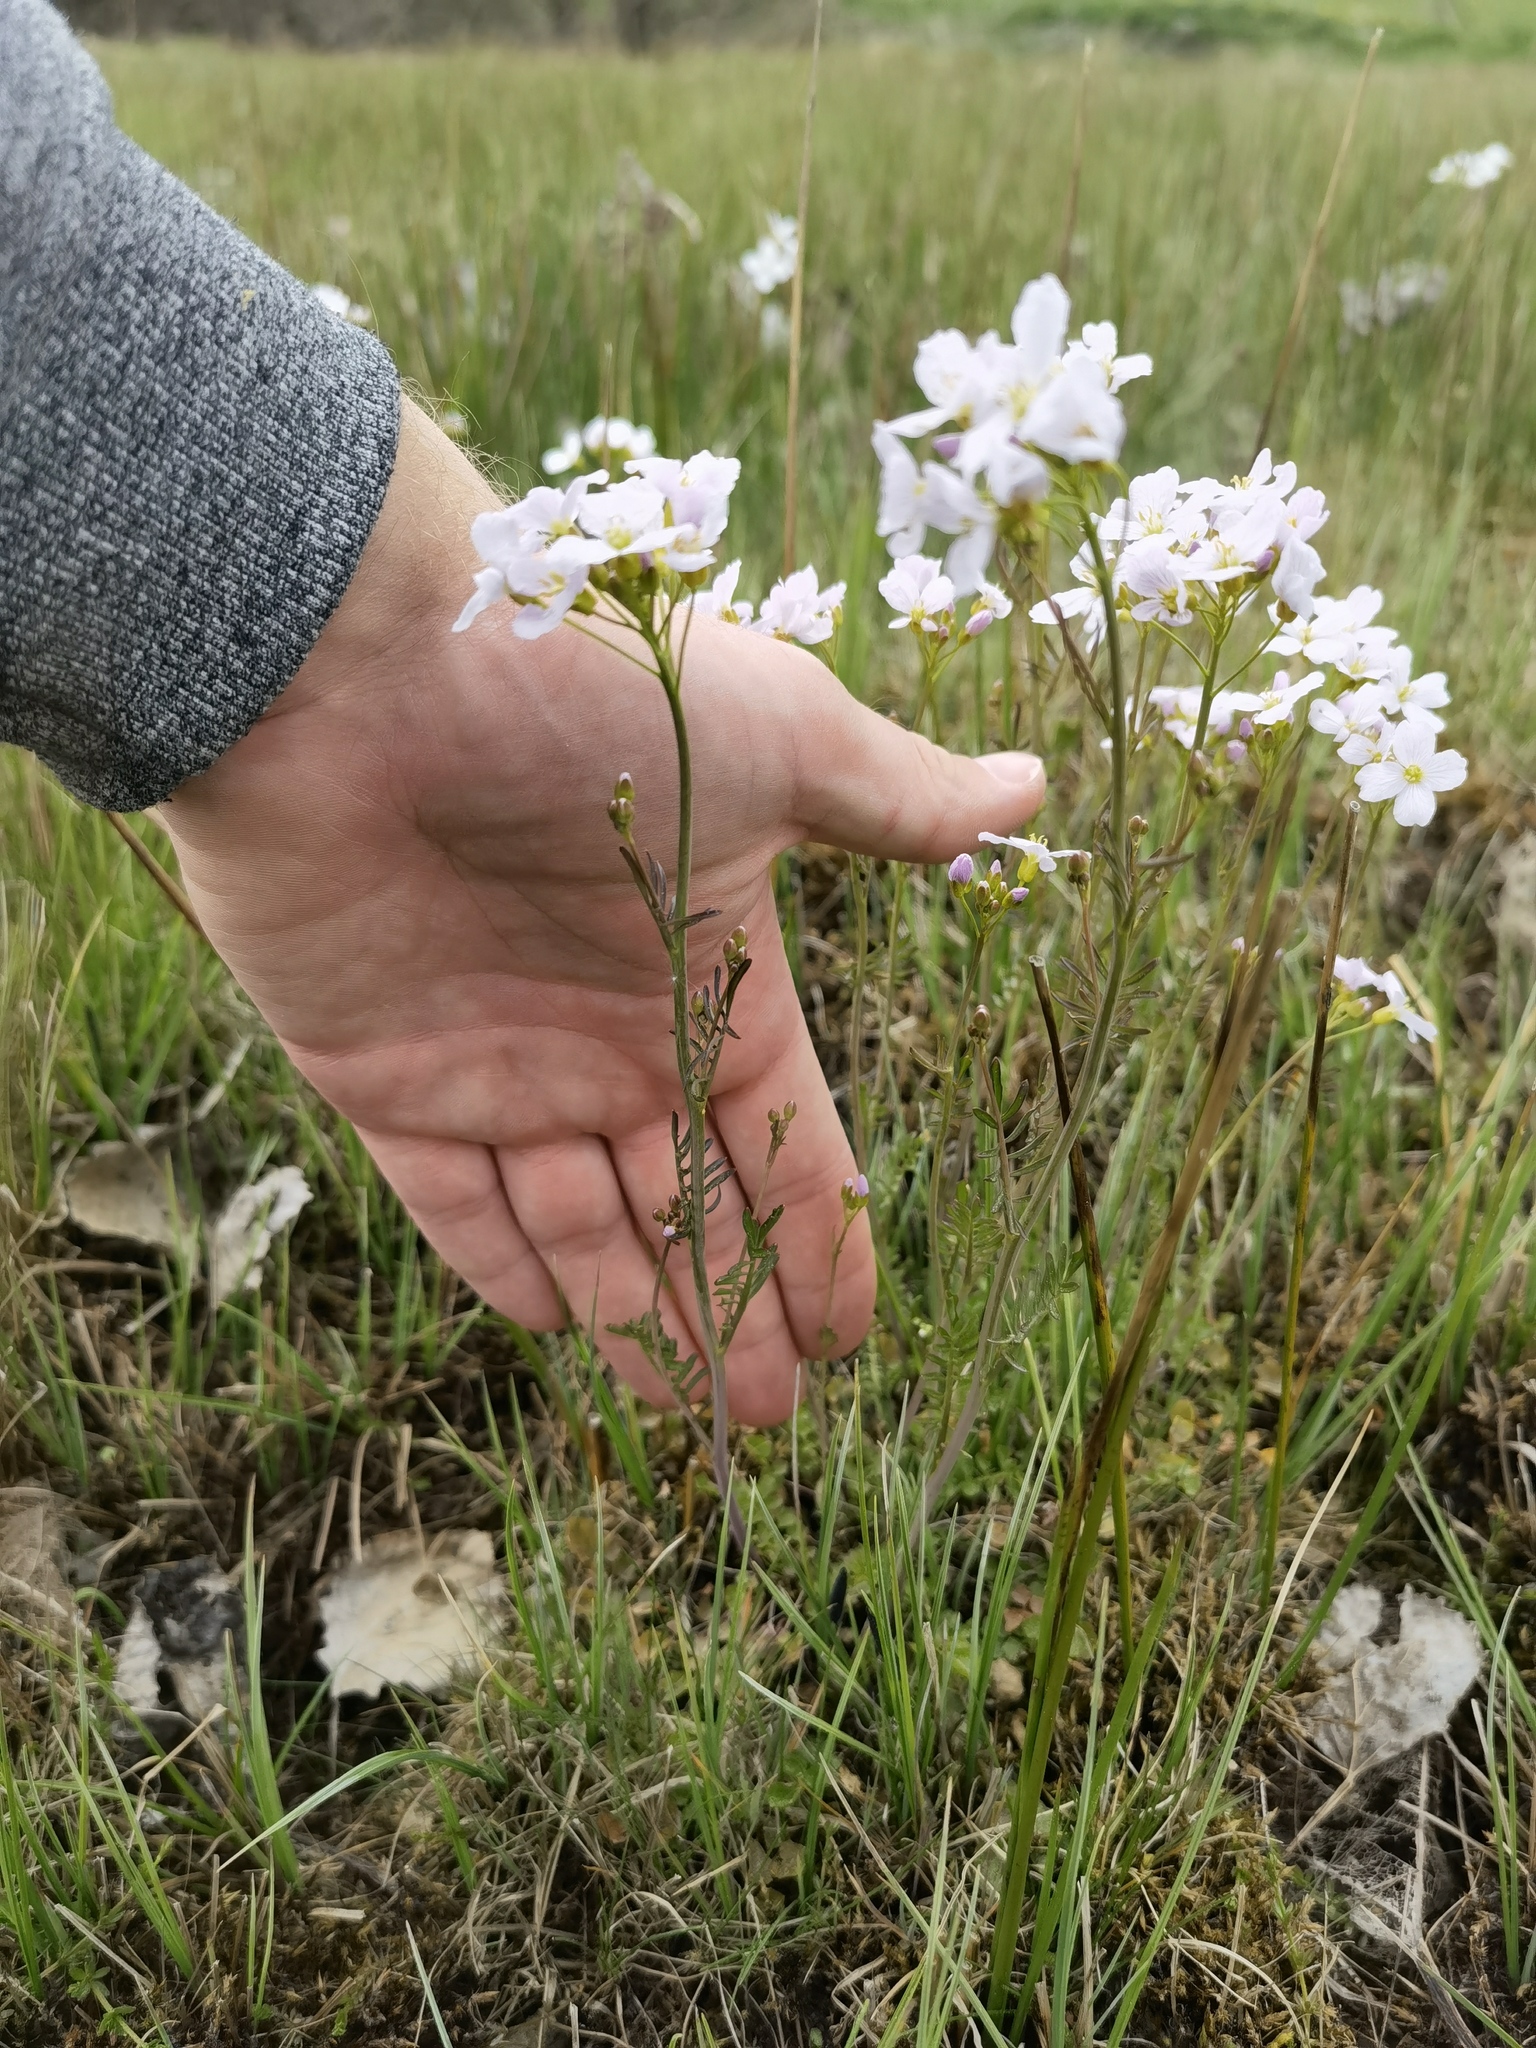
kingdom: Plantae
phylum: Tracheophyta
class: Magnoliopsida
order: Brassicales
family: Brassicaceae
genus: Cardamine
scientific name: Cardamine pratensis
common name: Cuckoo flower
